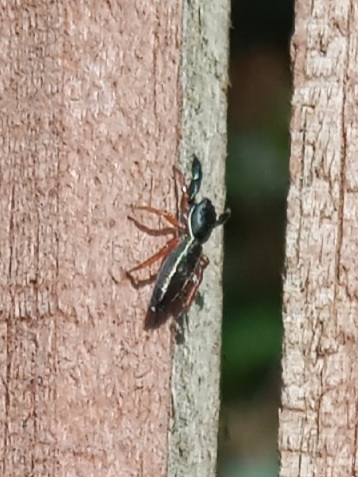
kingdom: Animalia
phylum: Arthropoda
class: Arachnida
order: Araneae
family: Salticidae
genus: Metacyrba
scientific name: Metacyrba floridana
